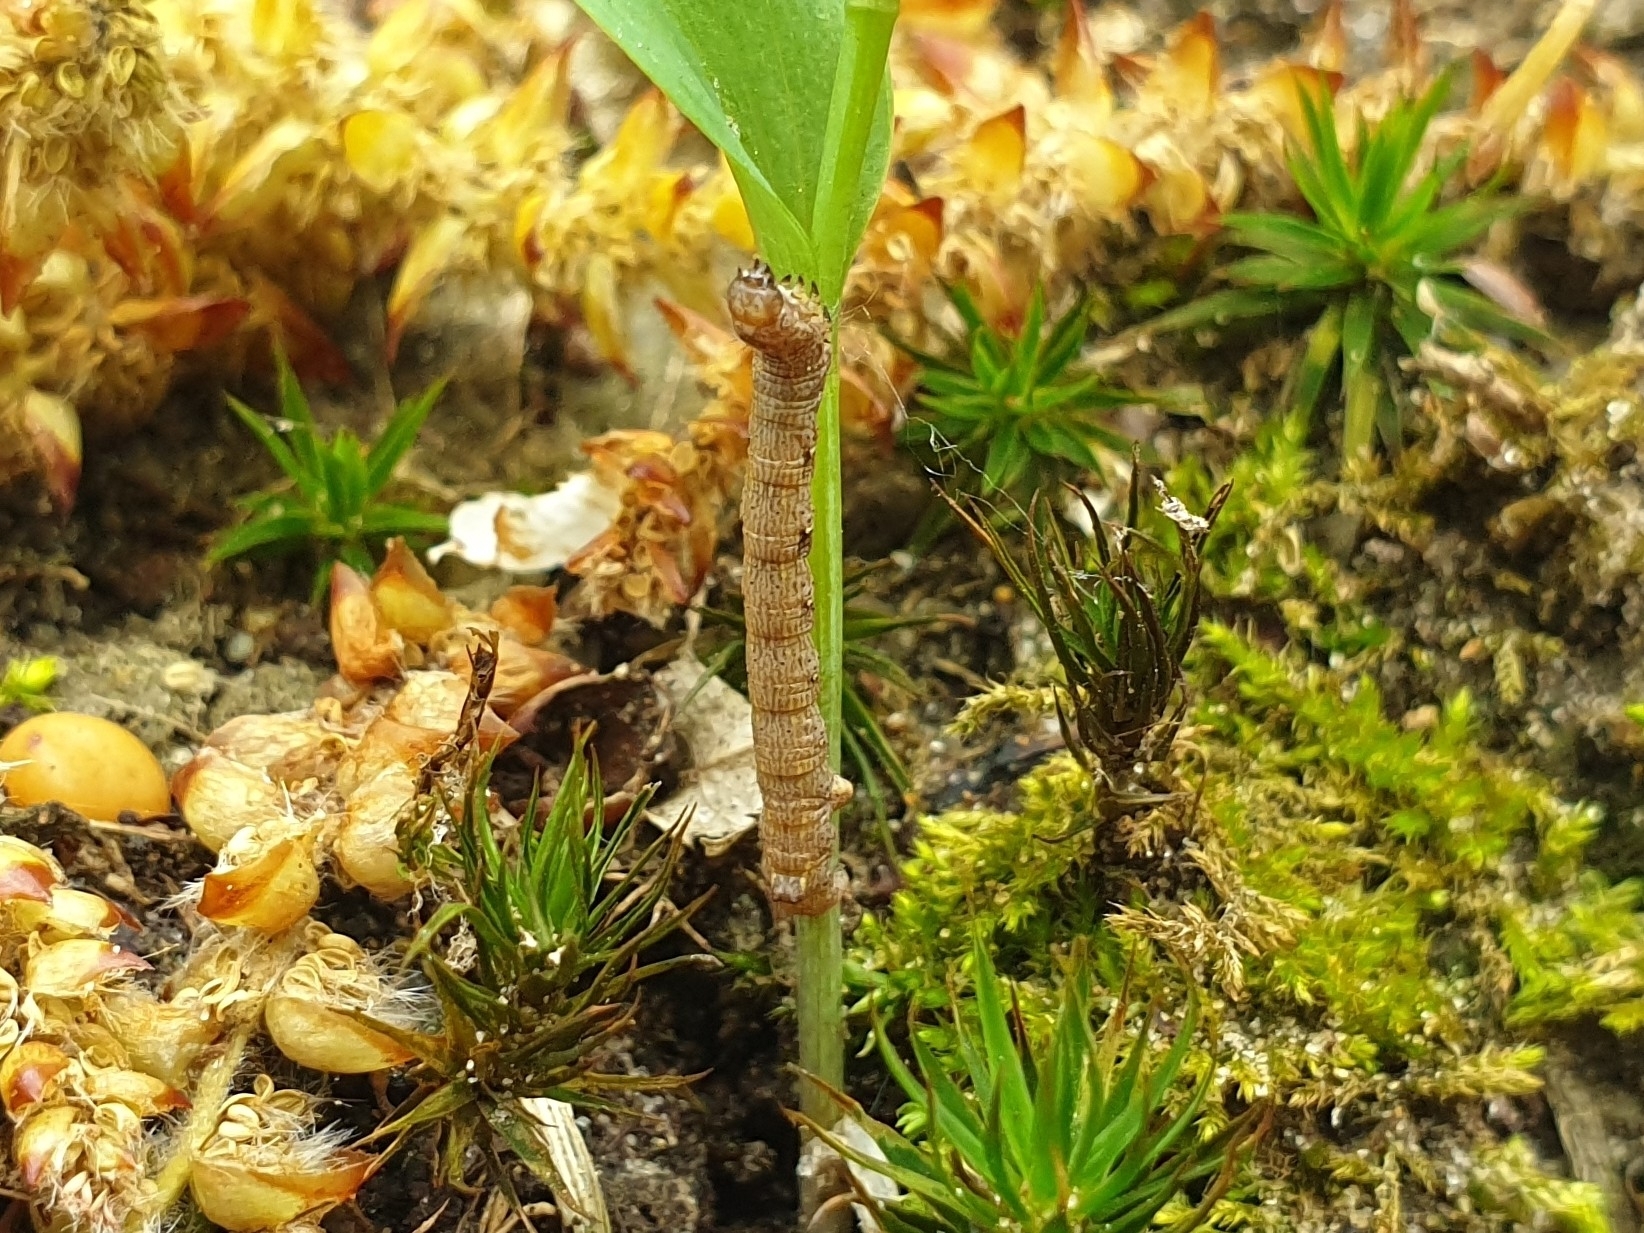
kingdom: Animalia
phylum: Arthropoda
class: Insecta
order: Lepidoptera
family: Geometridae
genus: Colotois
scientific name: Colotois pennaria
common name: Feathered thorn
